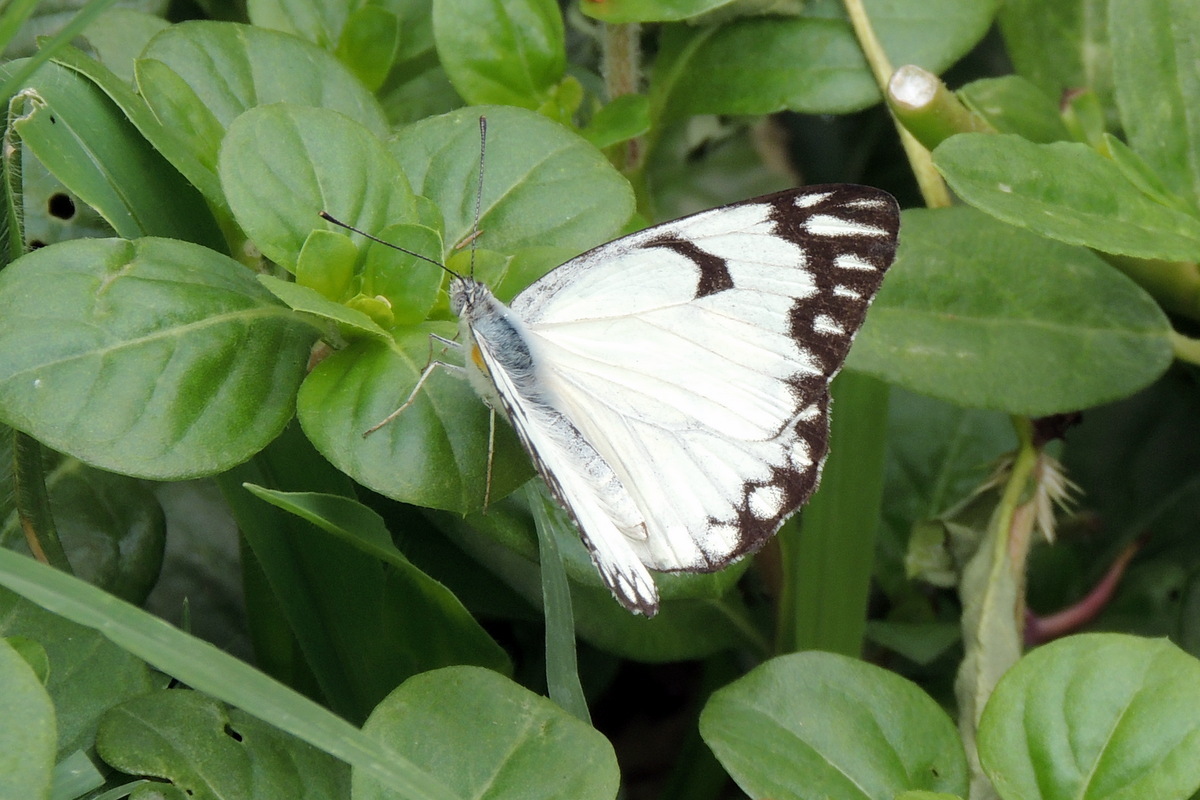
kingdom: Animalia
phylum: Arthropoda
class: Insecta
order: Lepidoptera
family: Pieridae
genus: Belenois
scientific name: Belenois aurota
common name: Brown-veined white
